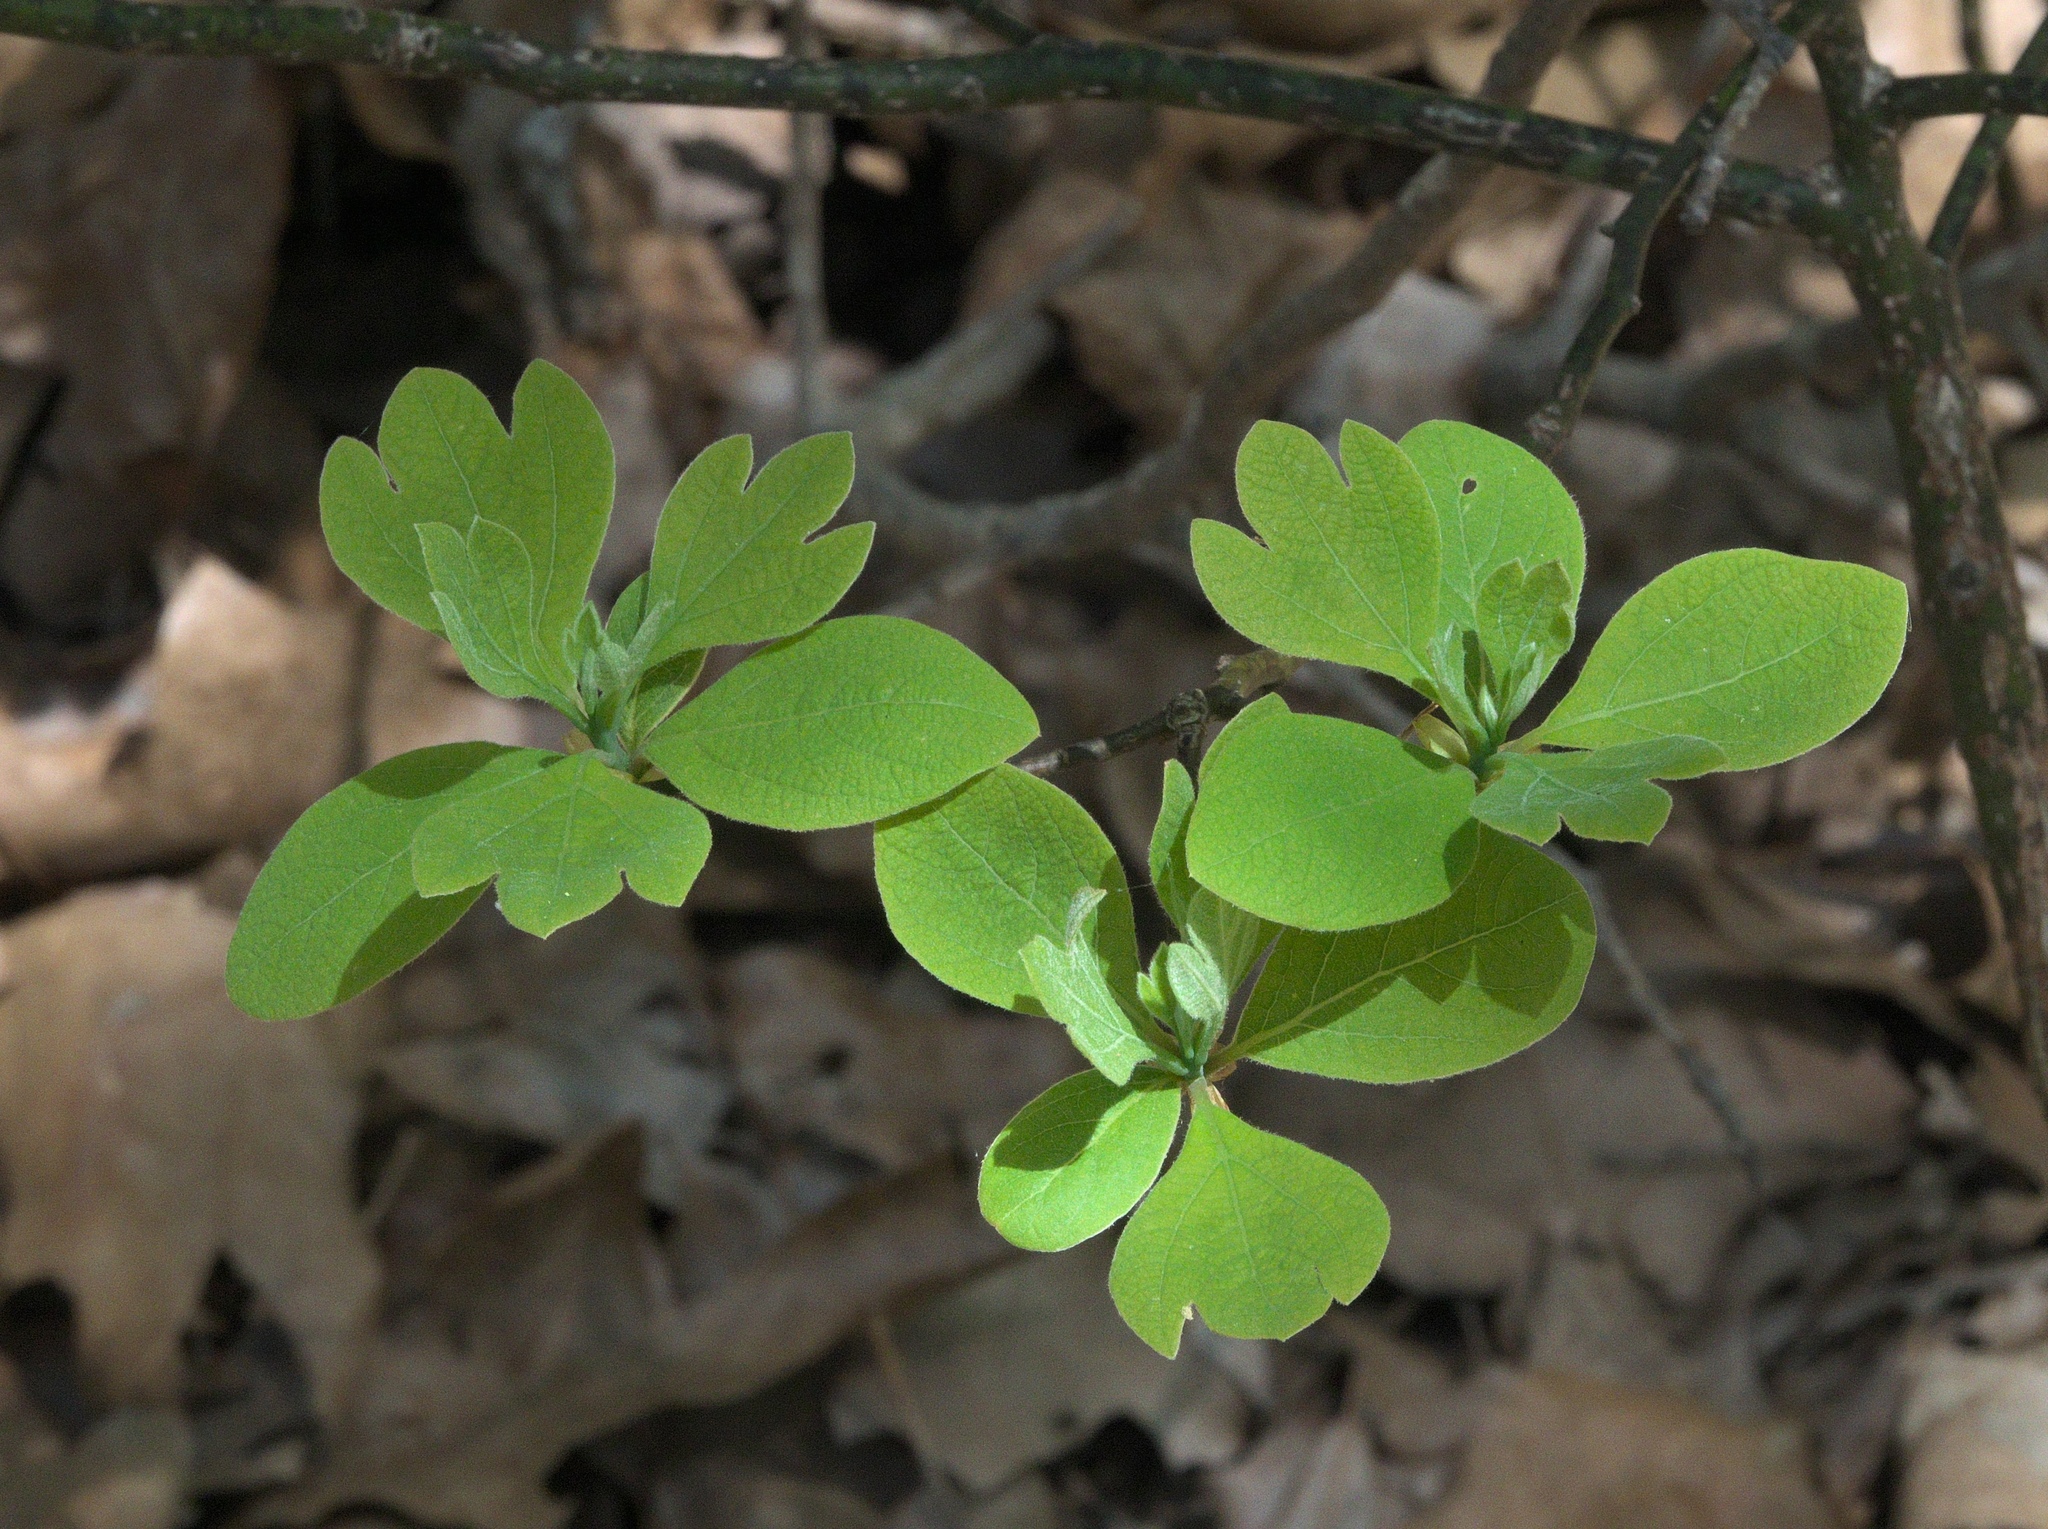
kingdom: Plantae
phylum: Tracheophyta
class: Magnoliopsida
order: Laurales
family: Lauraceae
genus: Sassafras
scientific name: Sassafras albidum
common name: Sassafras
